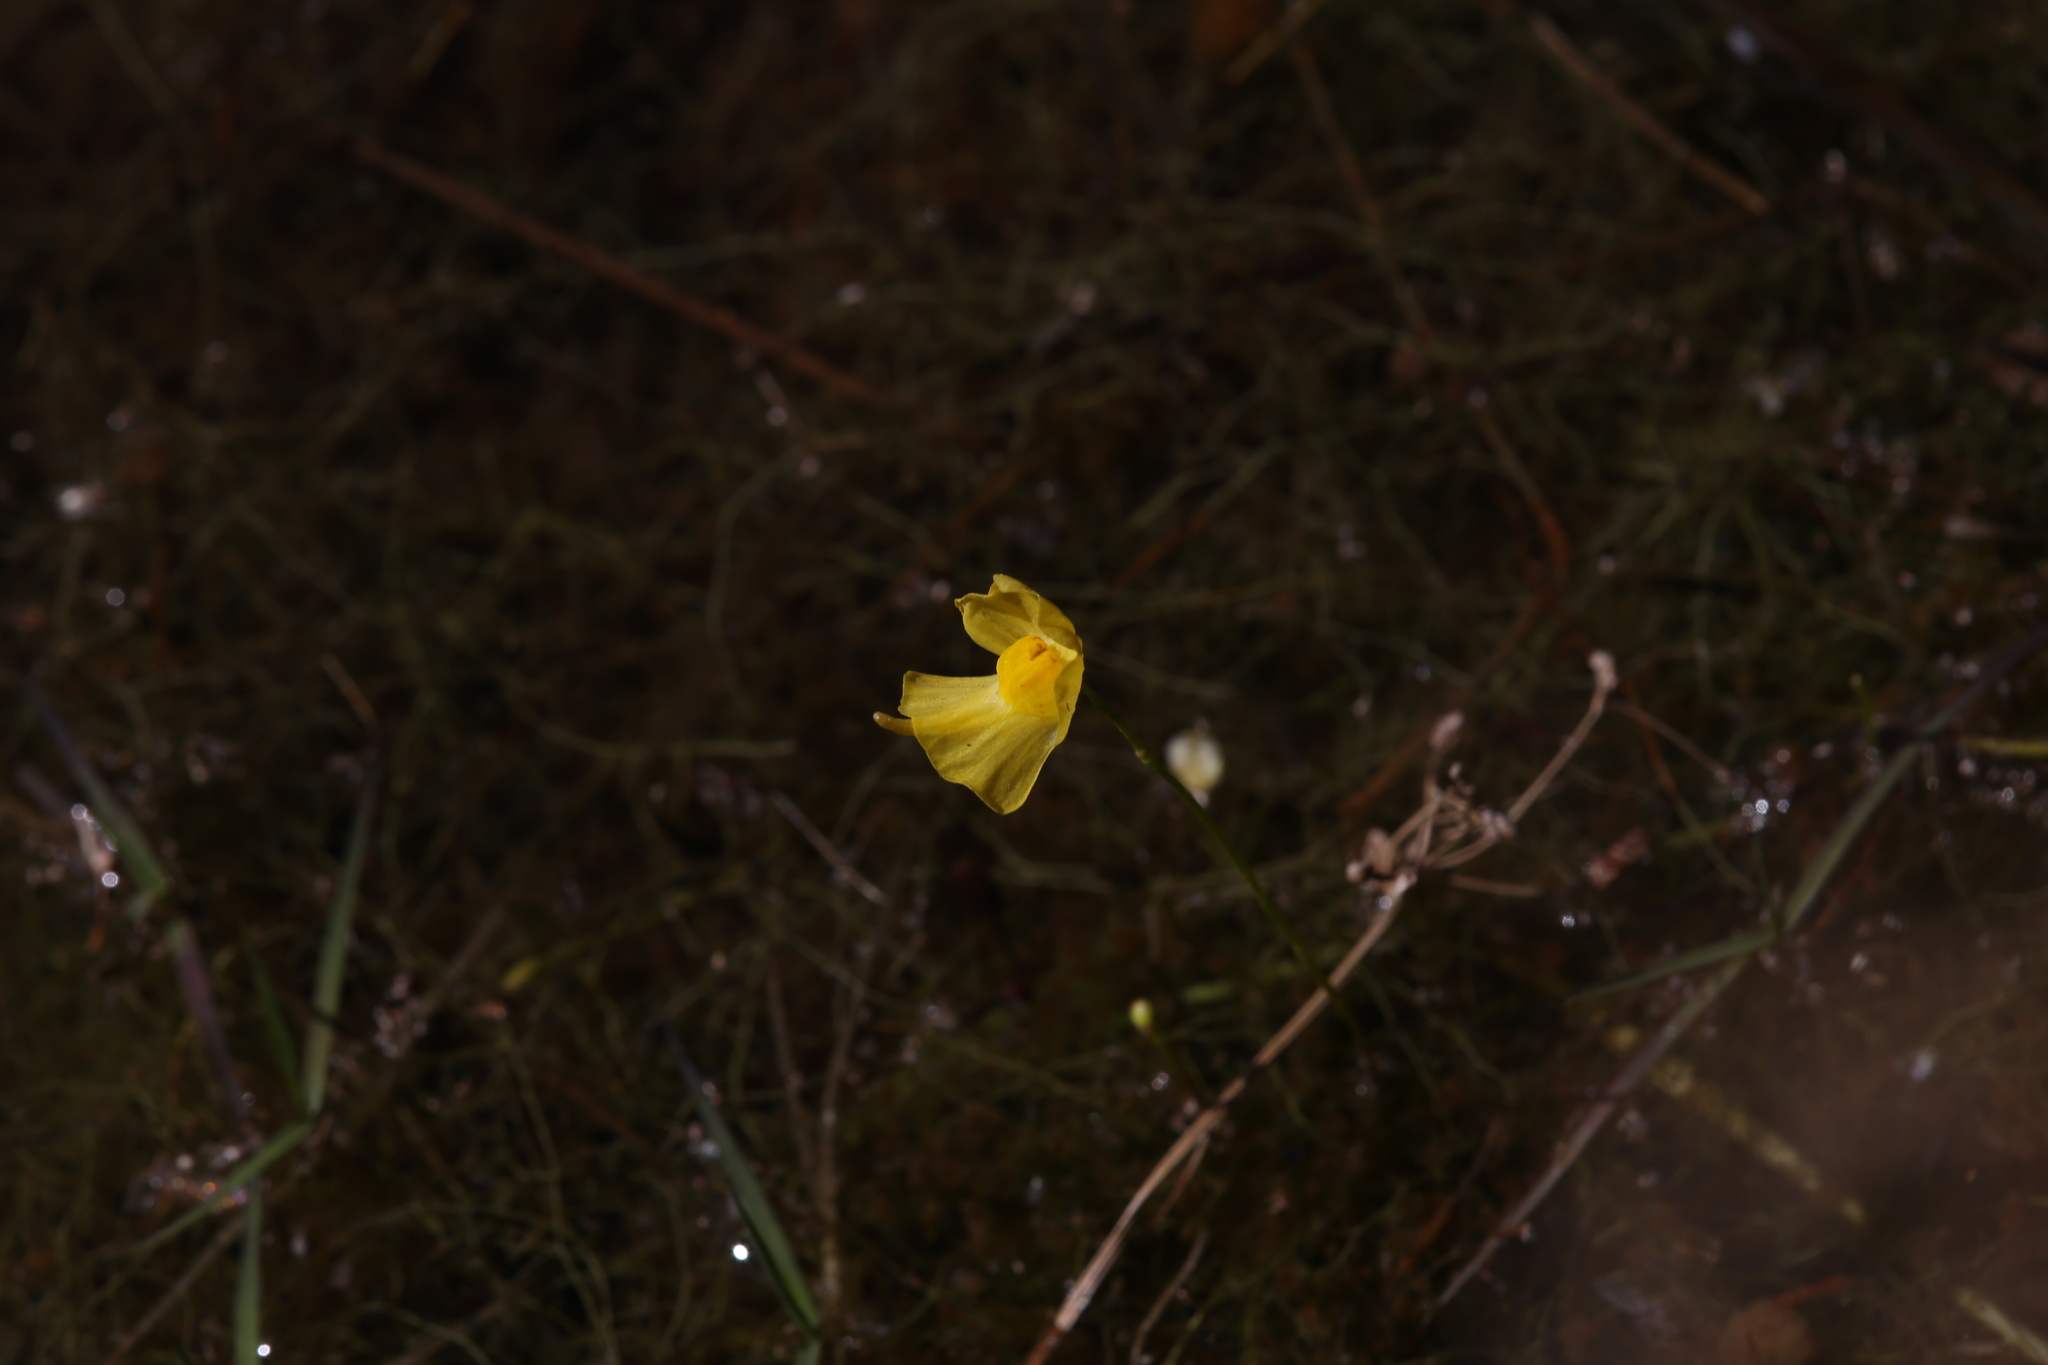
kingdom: Plantae
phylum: Tracheophyta
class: Magnoliopsida
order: Lamiales
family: Lentibulariaceae
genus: Utricularia
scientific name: Utricularia gibba
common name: Humped bladderwort
